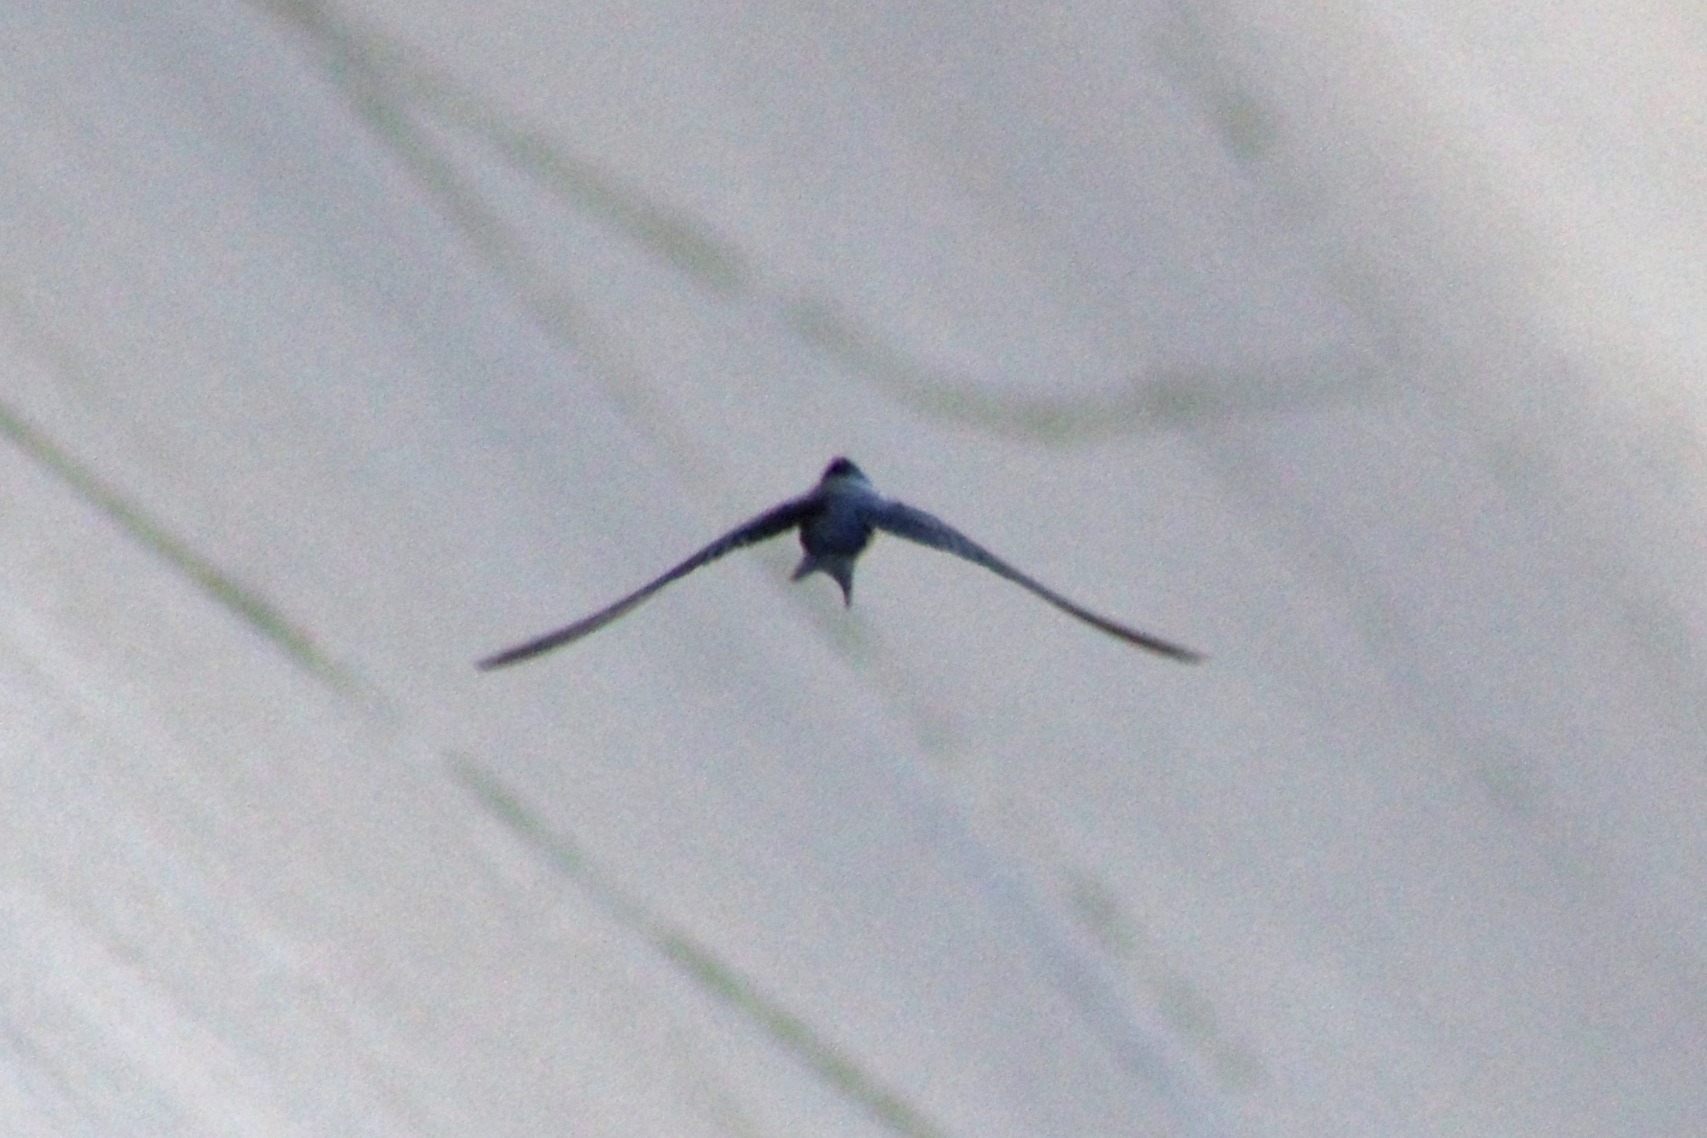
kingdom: Animalia
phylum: Chordata
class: Aves
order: Passeriformes
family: Hirundinidae
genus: Hirundo
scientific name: Hirundo rustica
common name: Barn swallow
